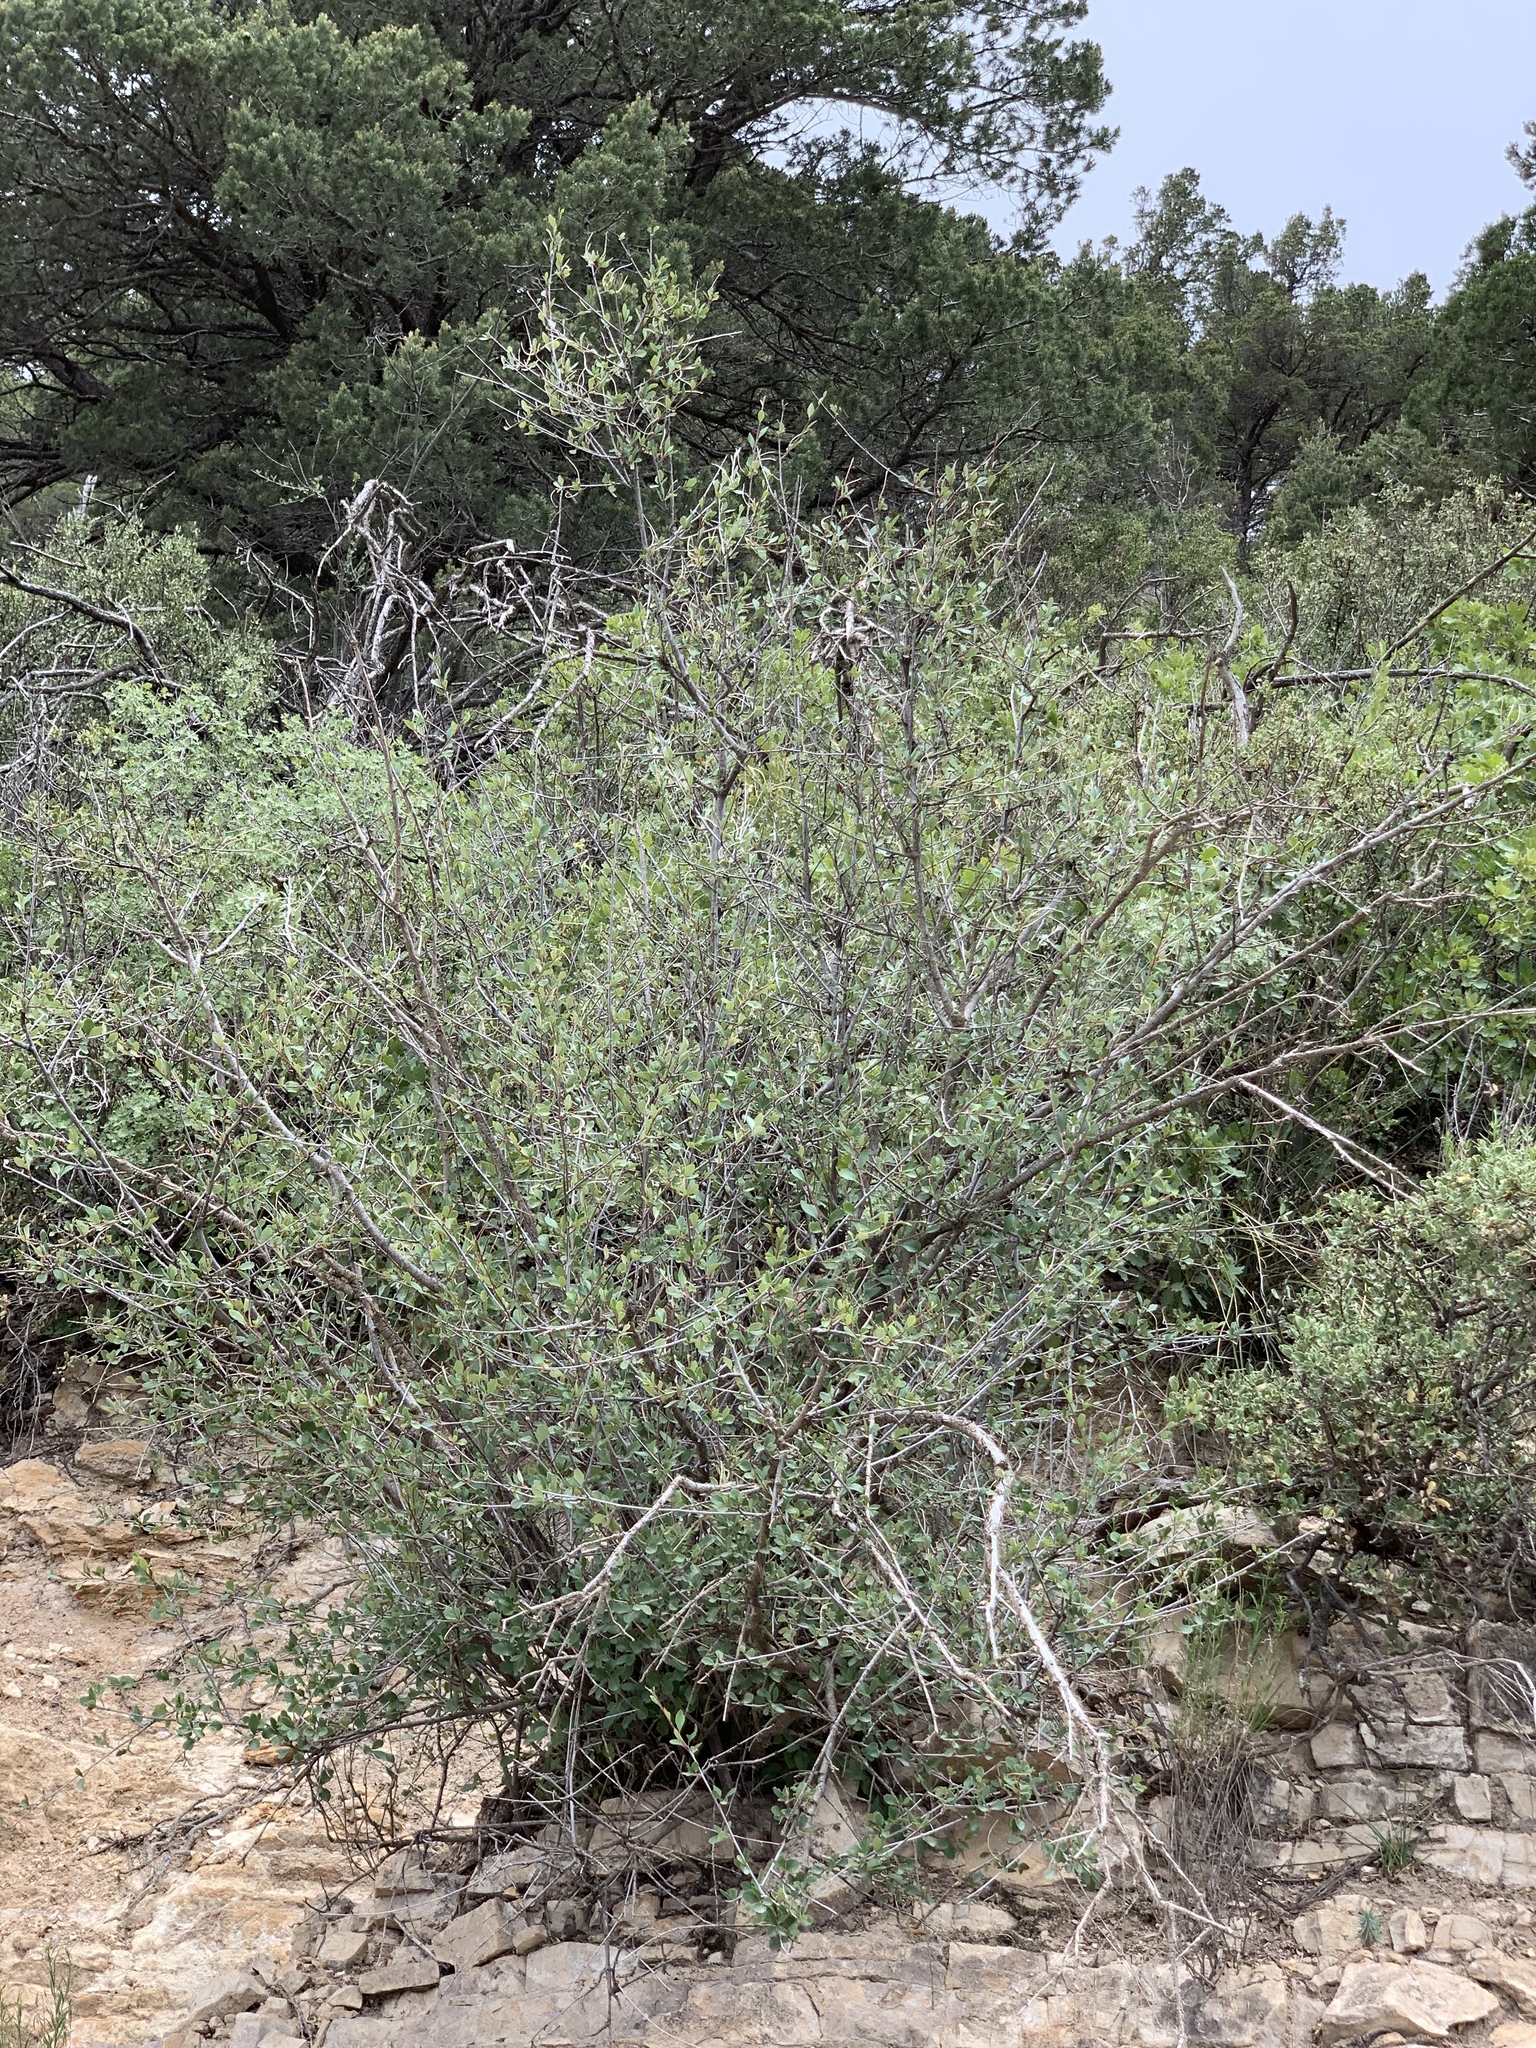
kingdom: Plantae
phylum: Tracheophyta
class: Magnoliopsida
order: Rosales
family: Rosaceae
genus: Cercocarpus
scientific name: Cercocarpus montanus
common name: Alder-leaf cercocarpus
